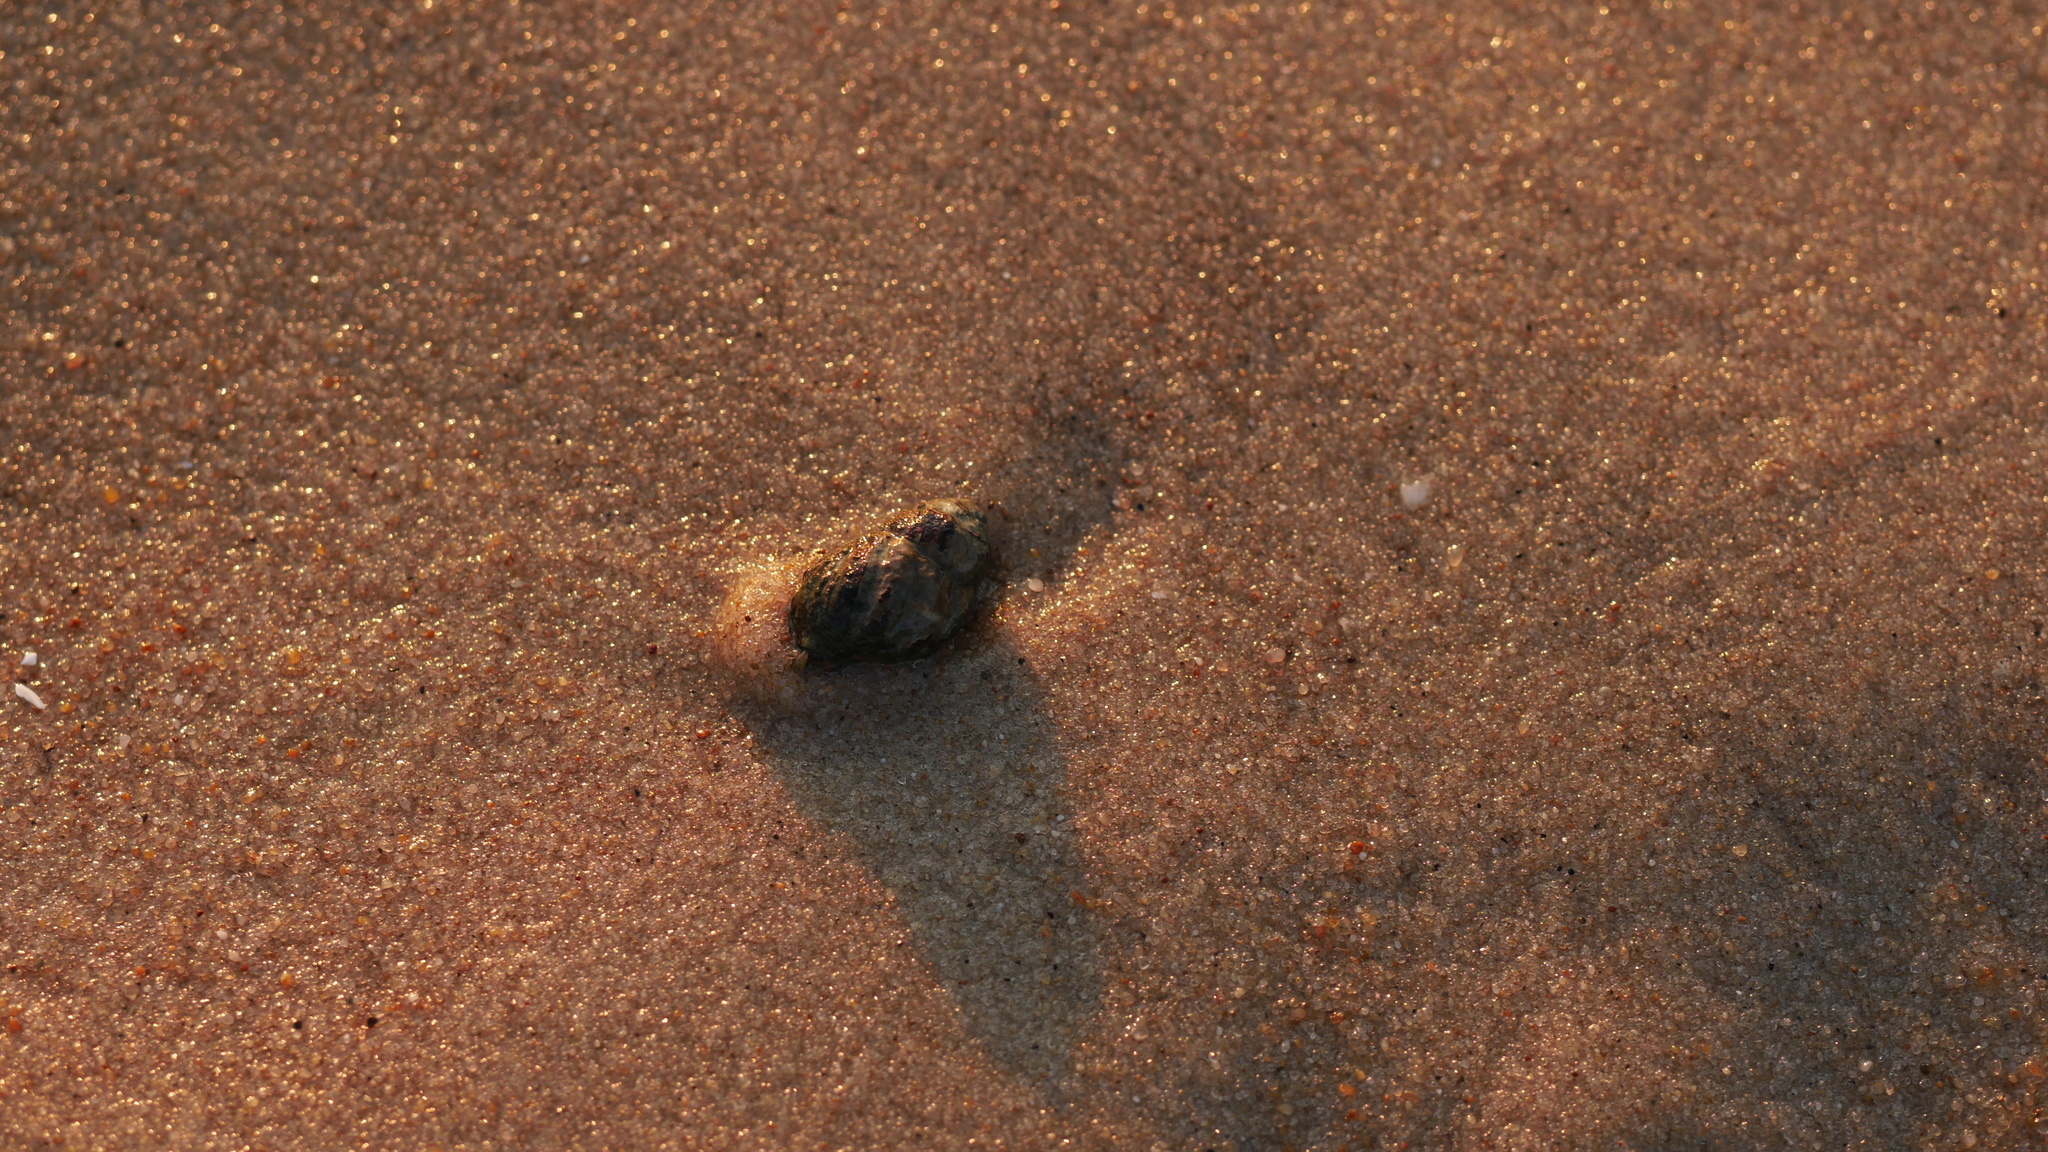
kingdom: Animalia
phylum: Mollusca
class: Gastropoda
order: Neogastropoda
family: Nassariidae
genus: Ilyanassa
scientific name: Ilyanassa obsoleta
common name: Eastern mudsnail
